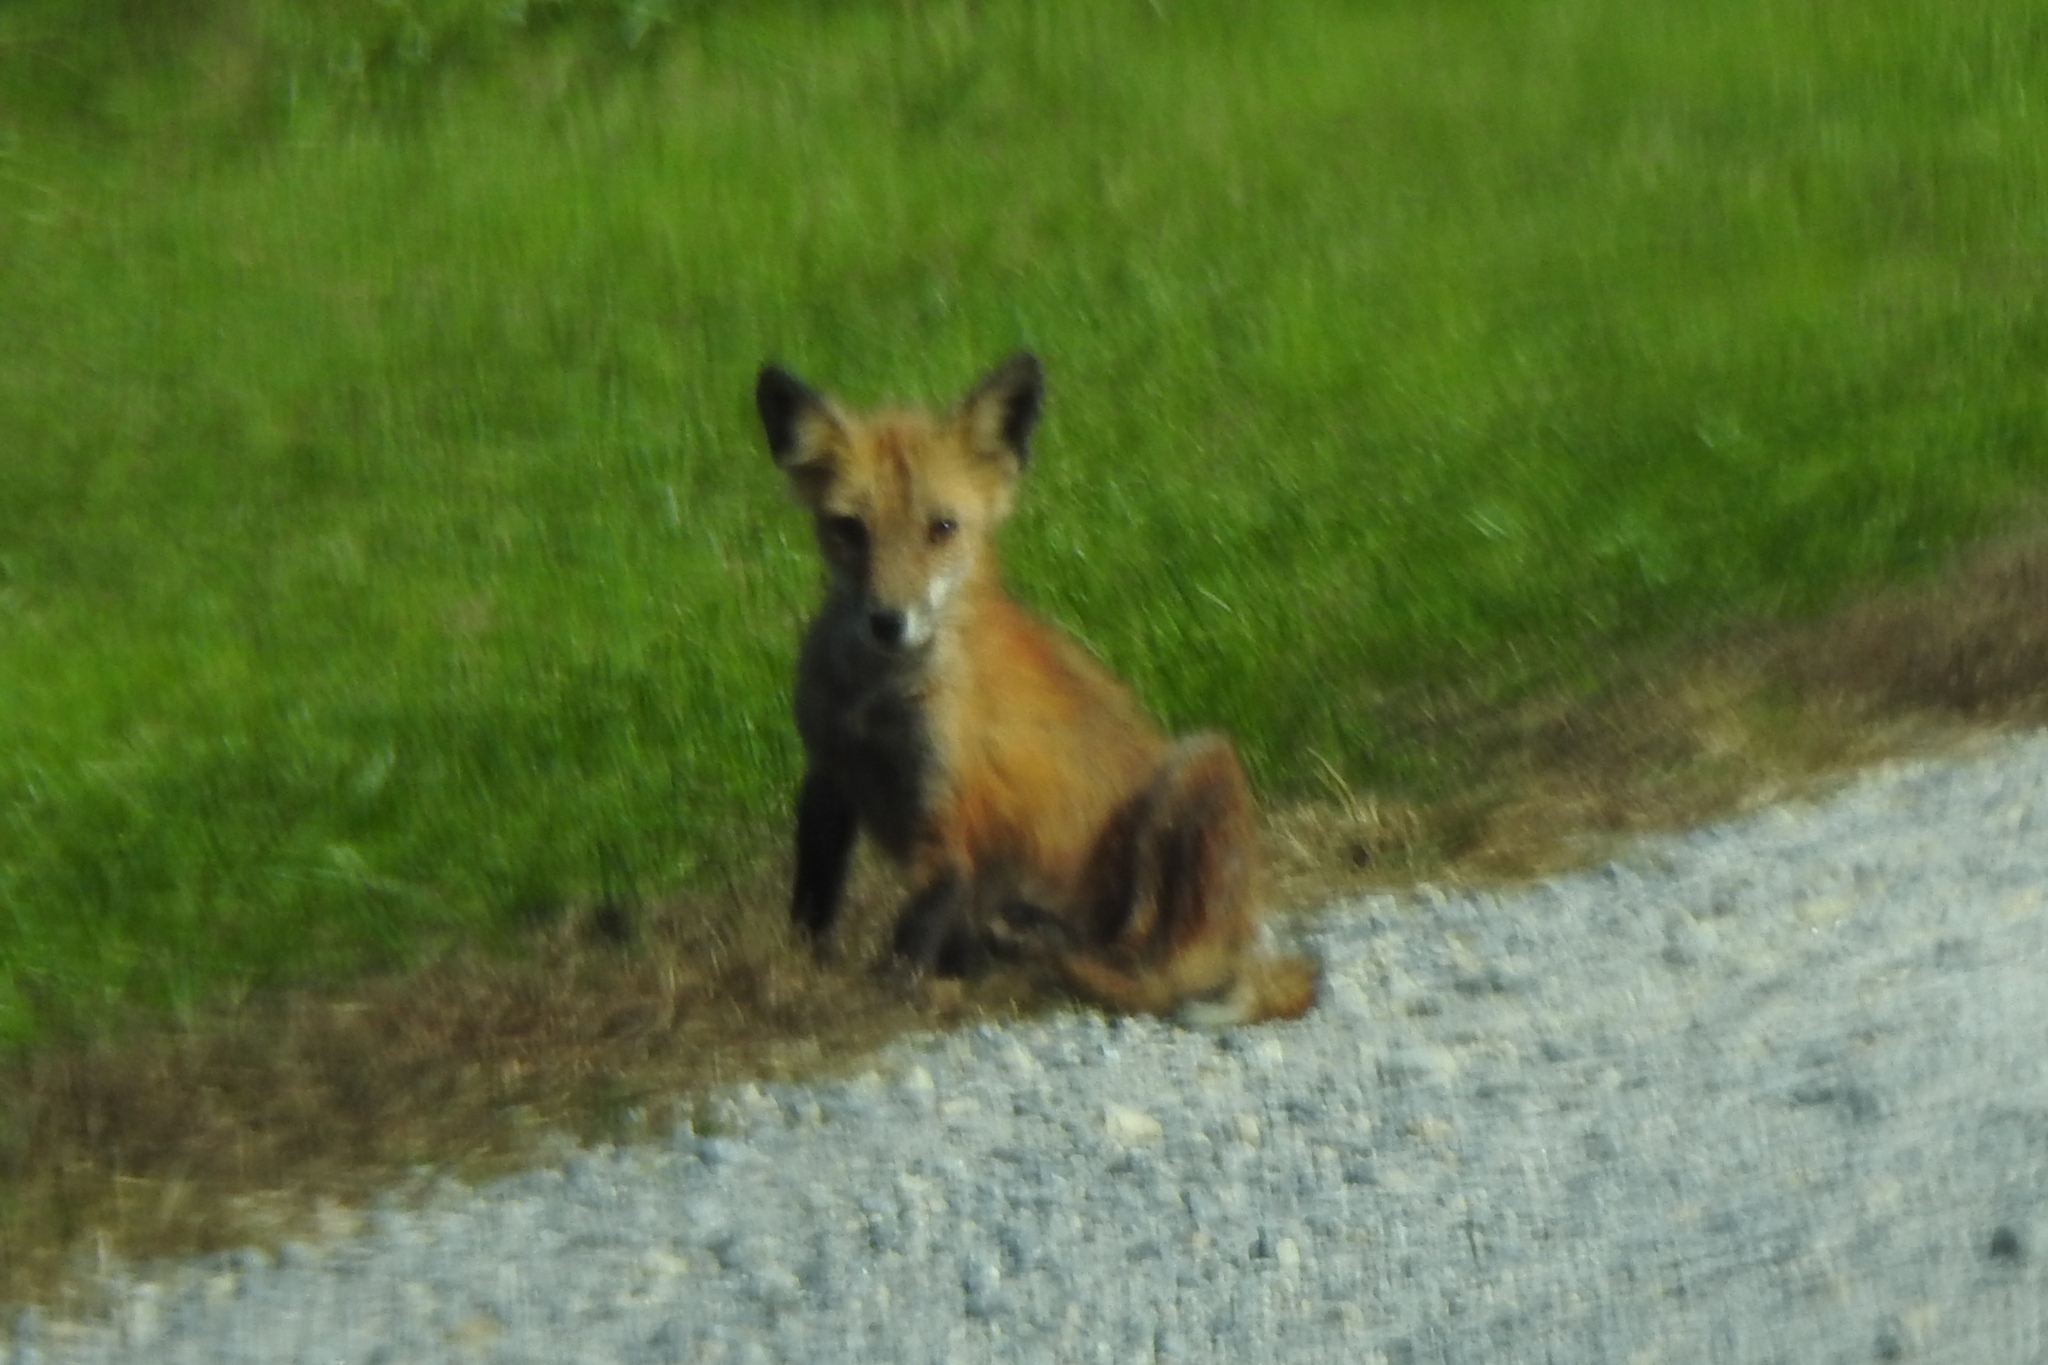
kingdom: Animalia
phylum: Chordata
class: Mammalia
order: Carnivora
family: Canidae
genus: Vulpes
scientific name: Vulpes vulpes
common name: Red fox
